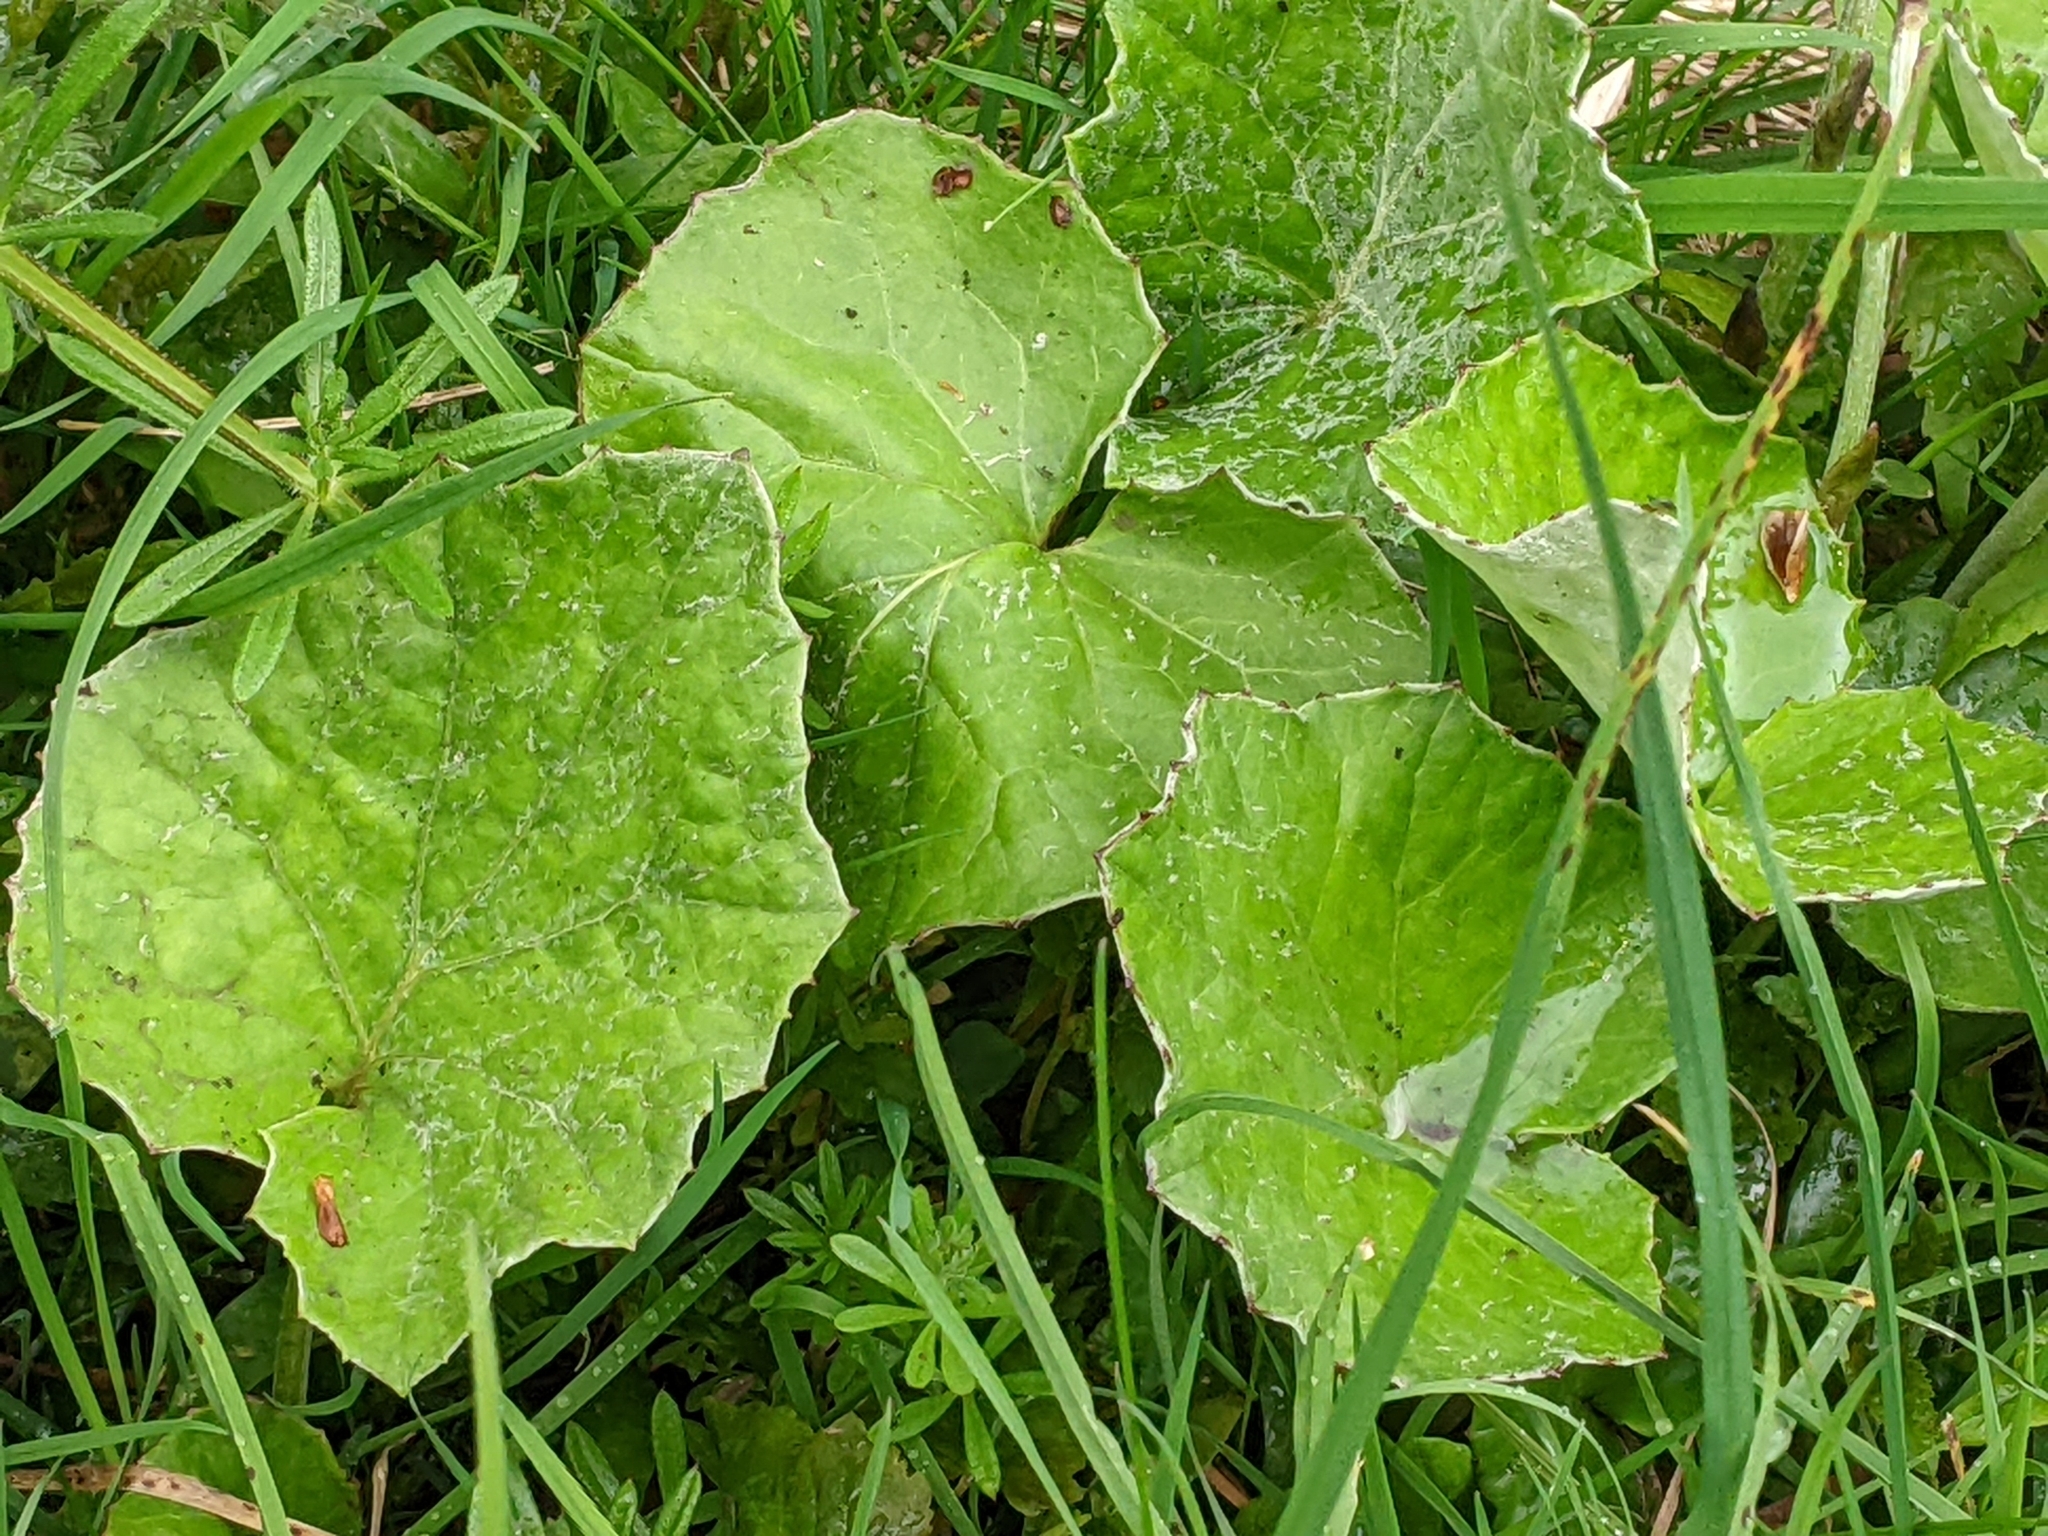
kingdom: Plantae
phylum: Tracheophyta
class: Magnoliopsida
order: Asterales
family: Asteraceae
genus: Tussilago
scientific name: Tussilago farfara
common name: Coltsfoot
